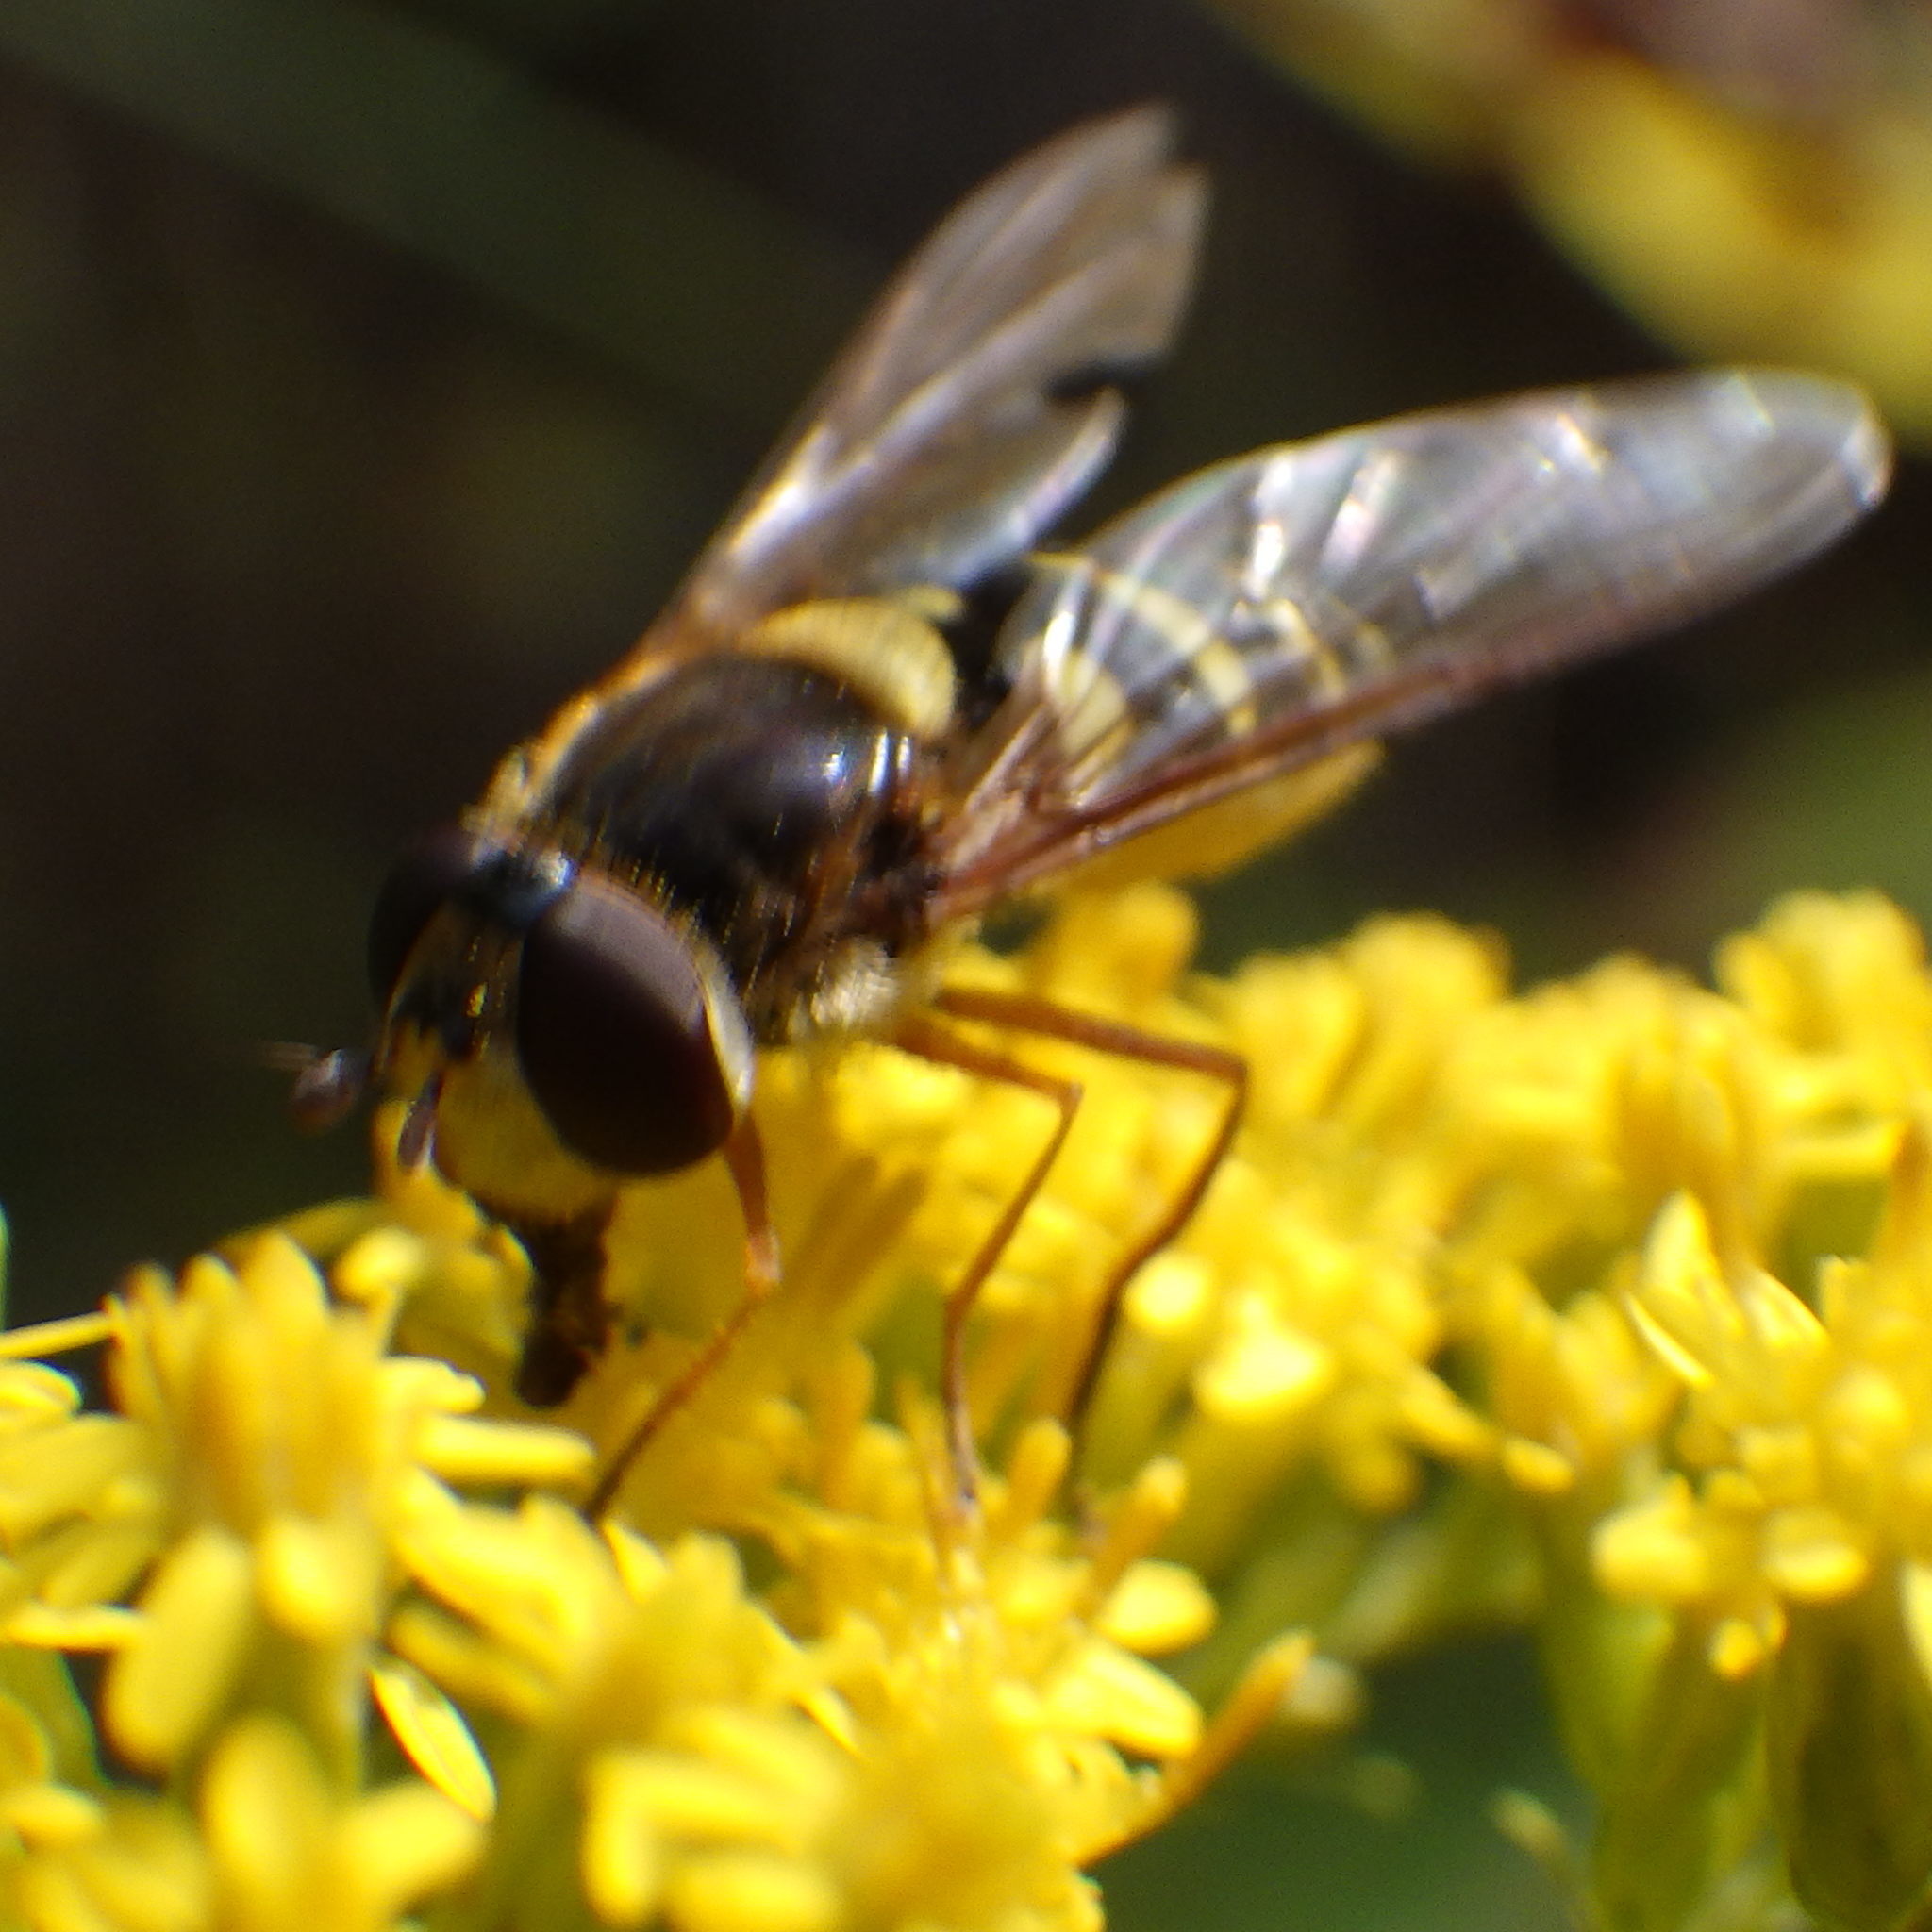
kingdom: Animalia
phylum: Arthropoda
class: Insecta
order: Diptera
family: Syrphidae
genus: Syrphus
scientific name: Syrphus ribesii
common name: Common flower fly
